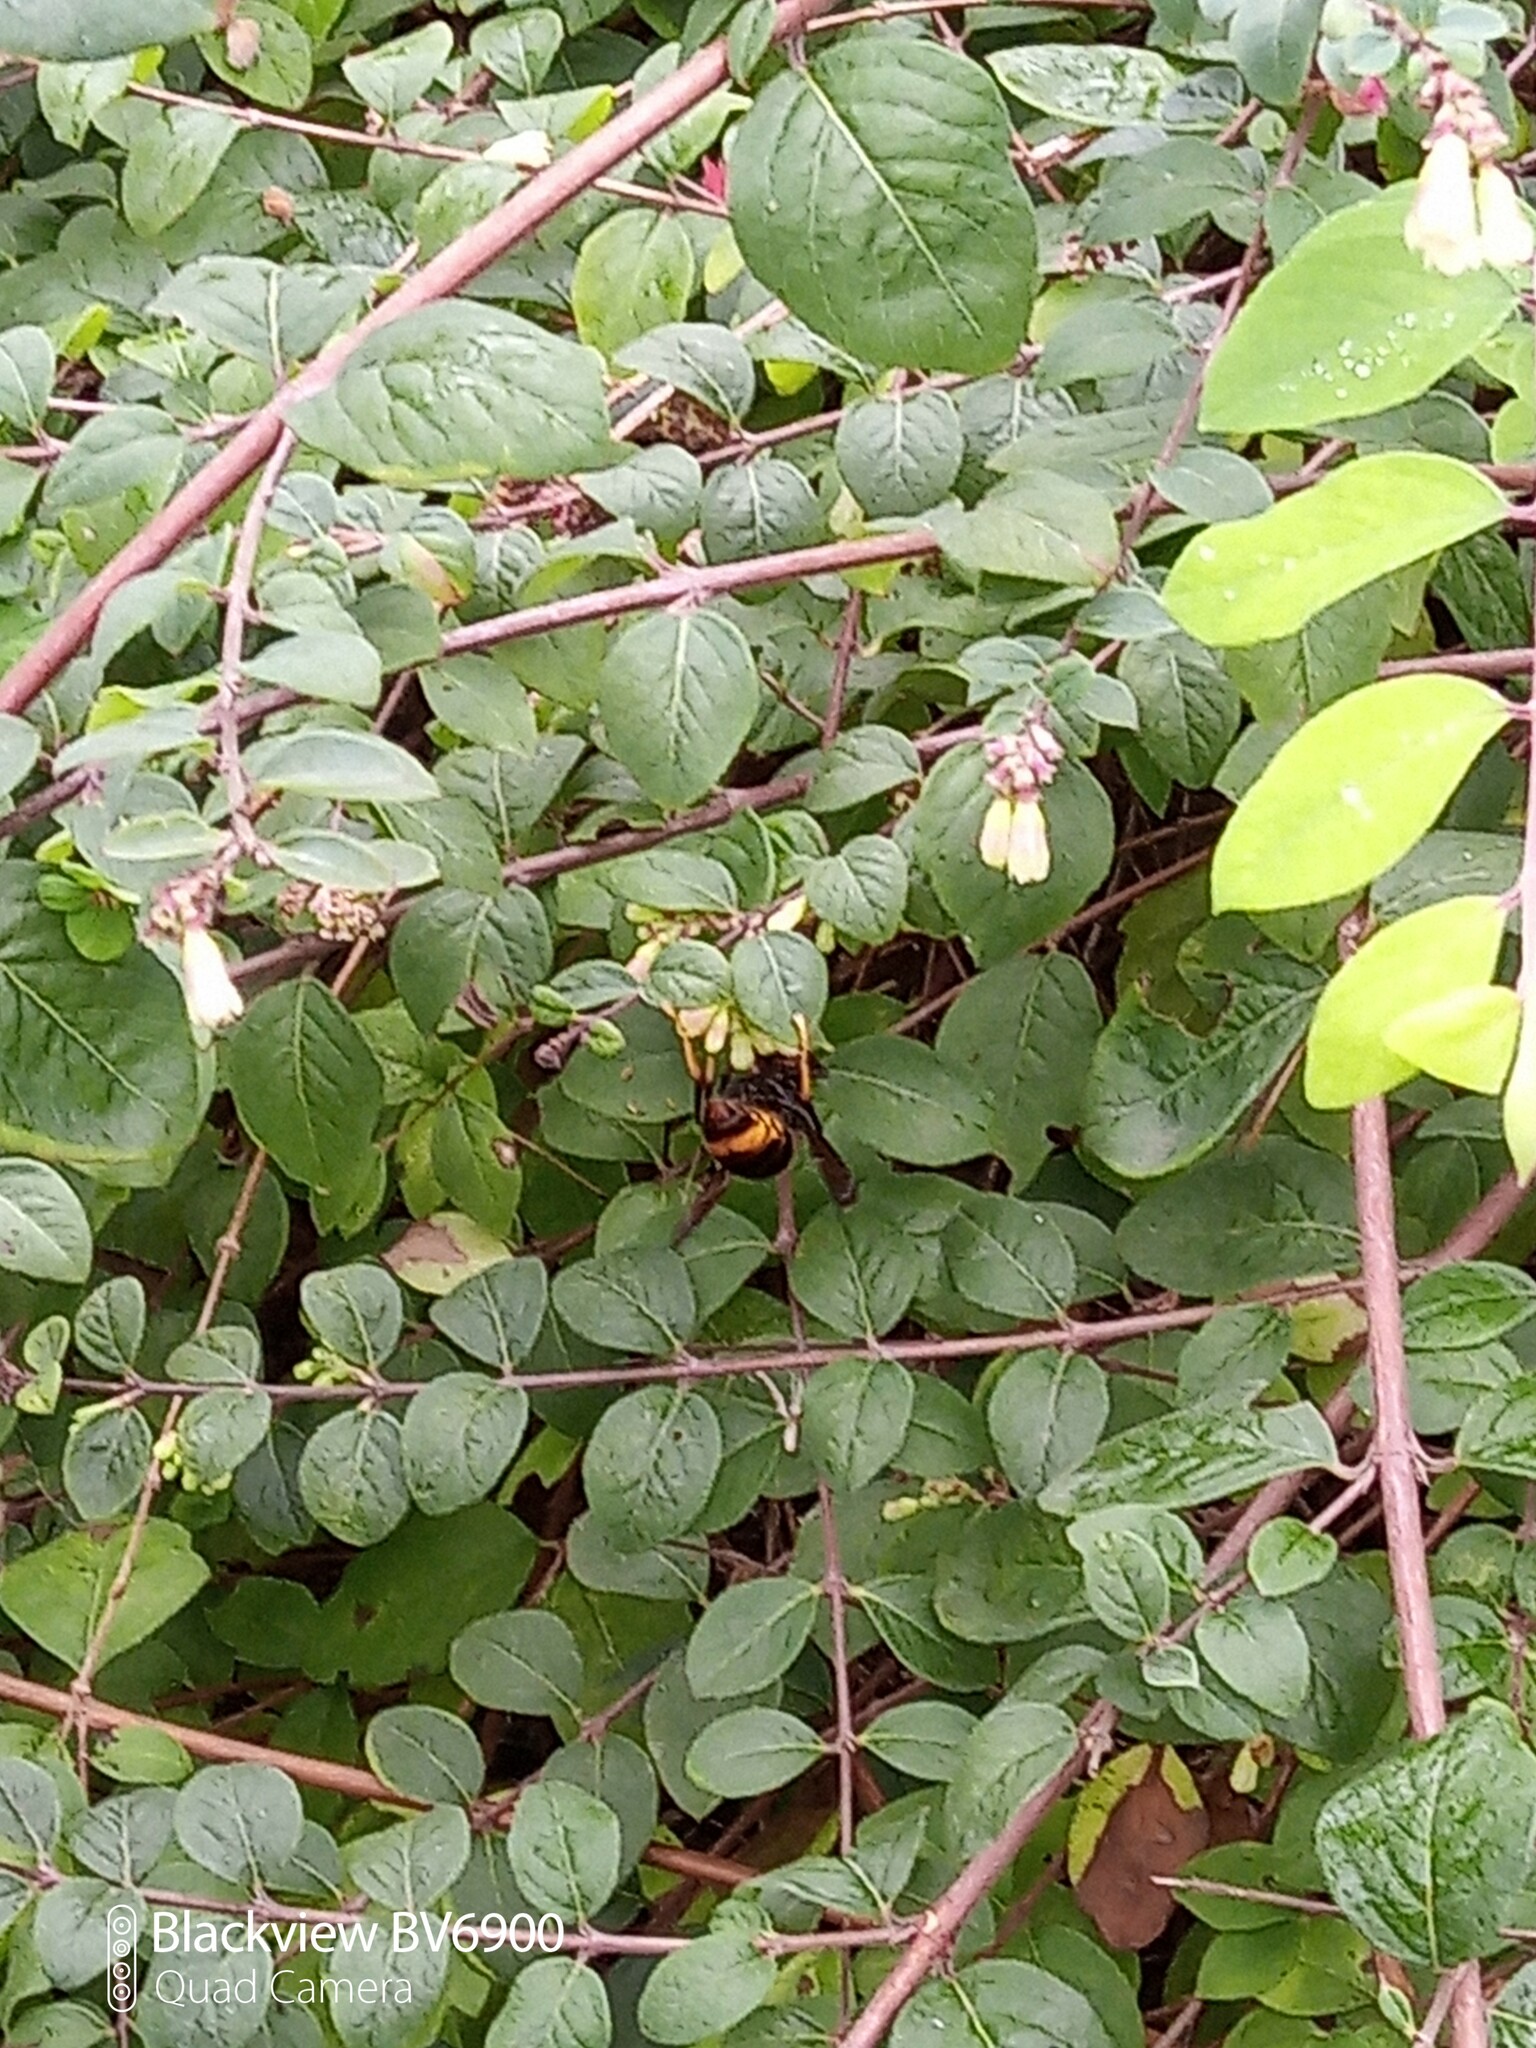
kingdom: Animalia
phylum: Arthropoda
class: Insecta
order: Hymenoptera
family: Vespidae
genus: Vespa
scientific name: Vespa velutina
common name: Asian hornet
